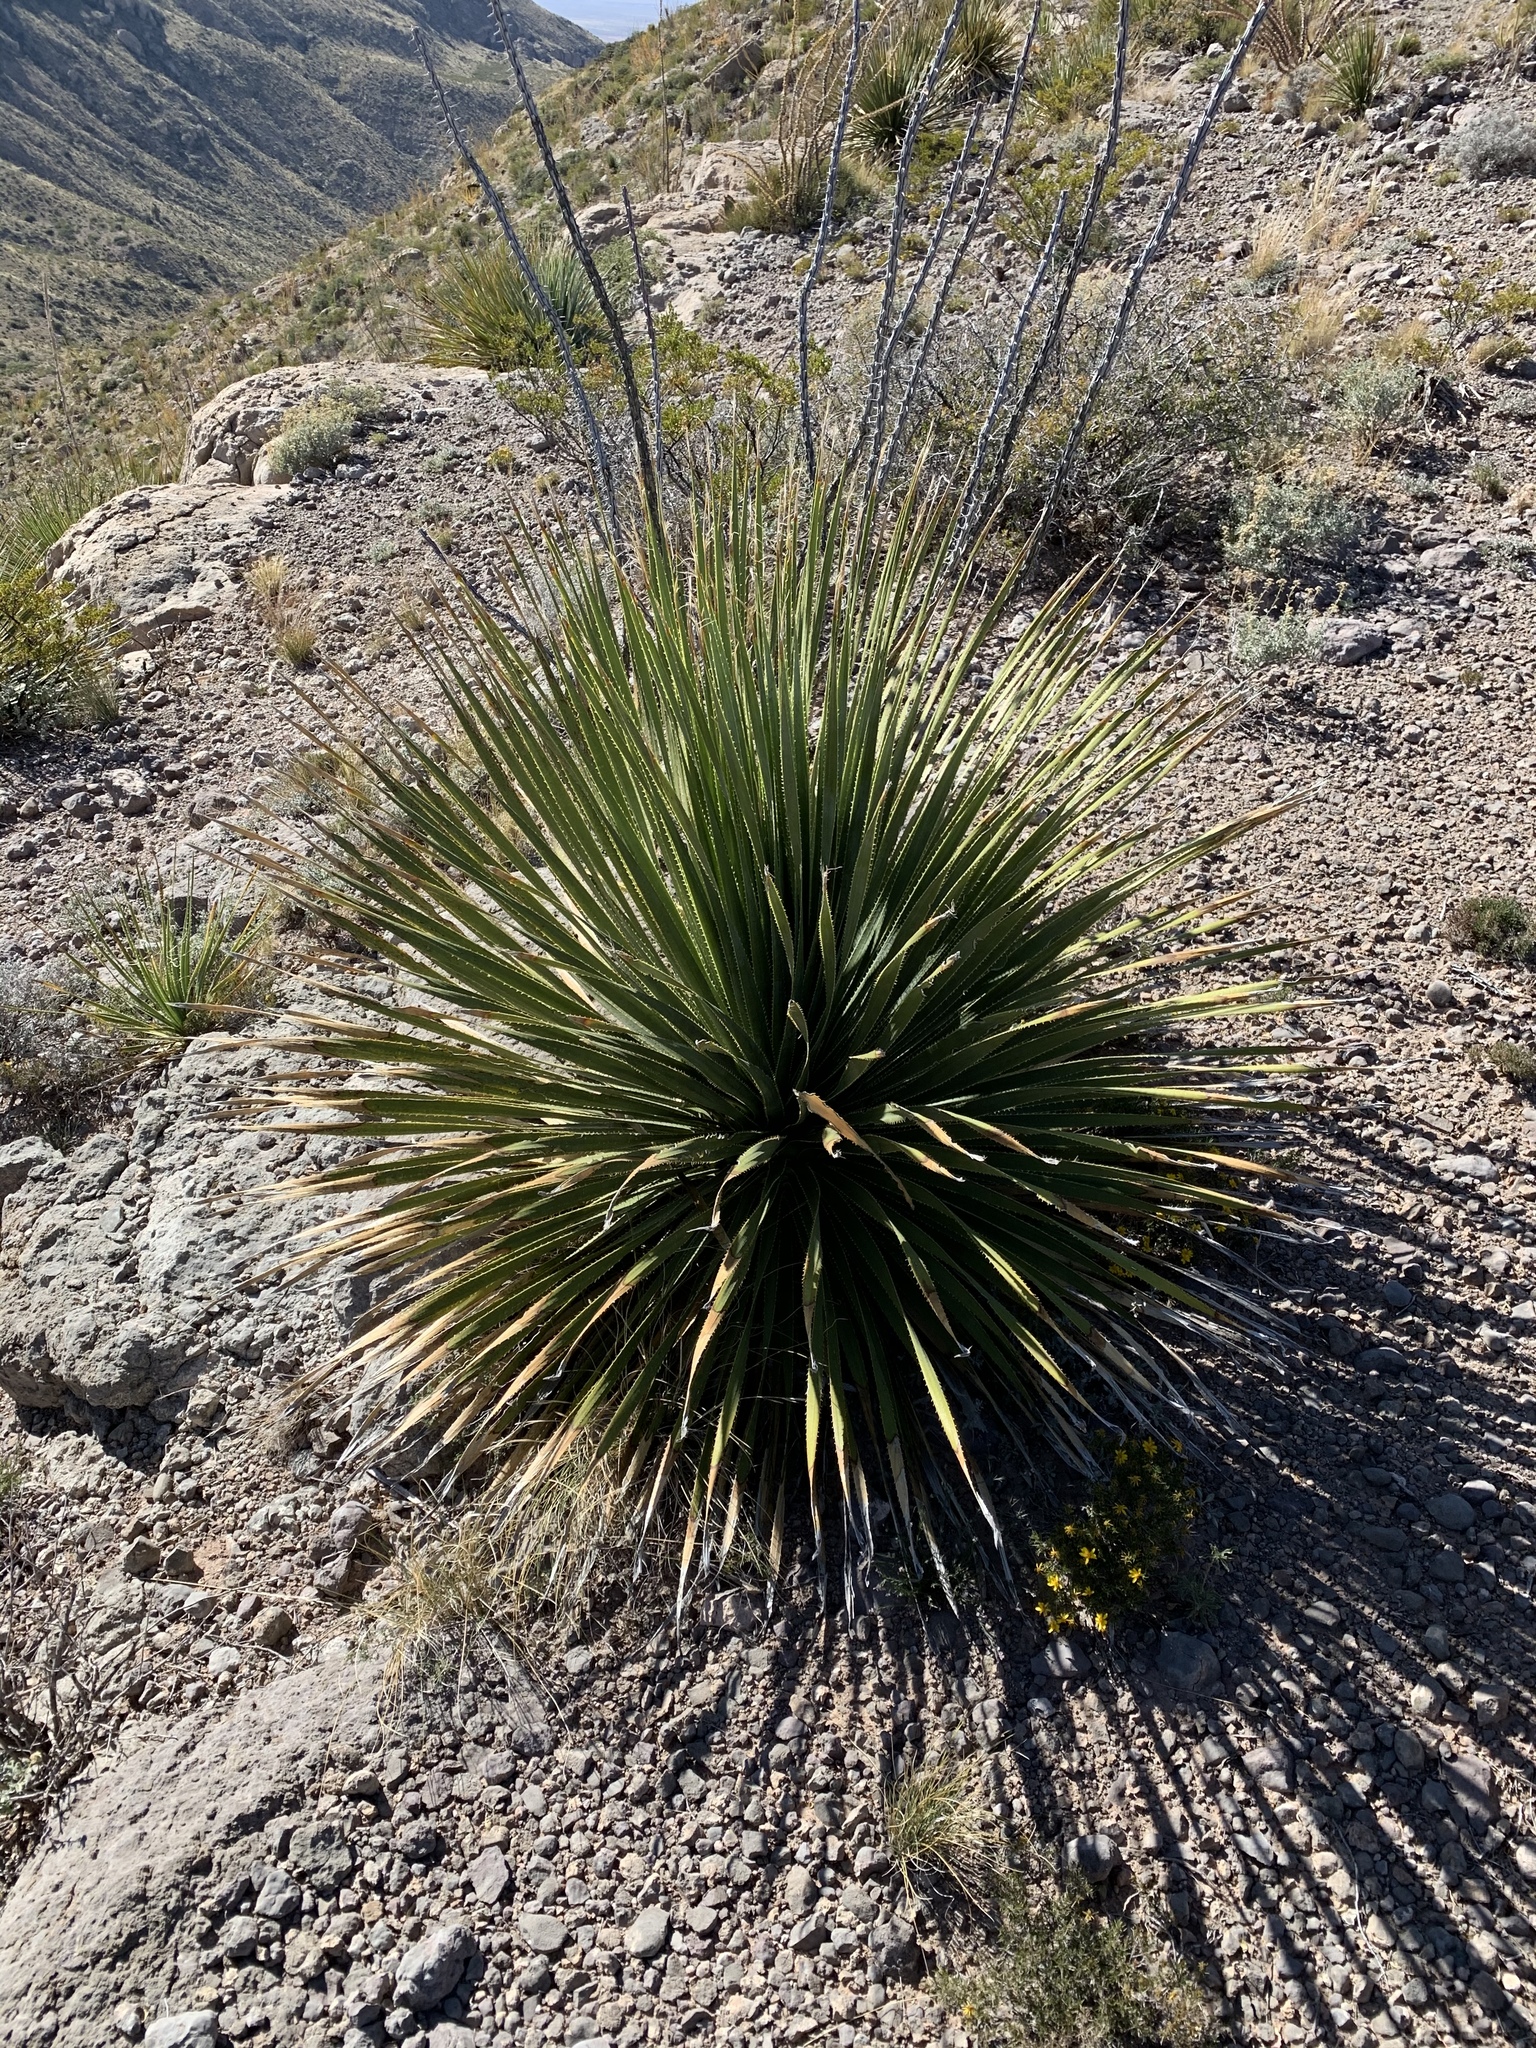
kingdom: Plantae
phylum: Tracheophyta
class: Liliopsida
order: Asparagales
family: Asparagaceae
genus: Dasylirion
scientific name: Dasylirion wheeleri
